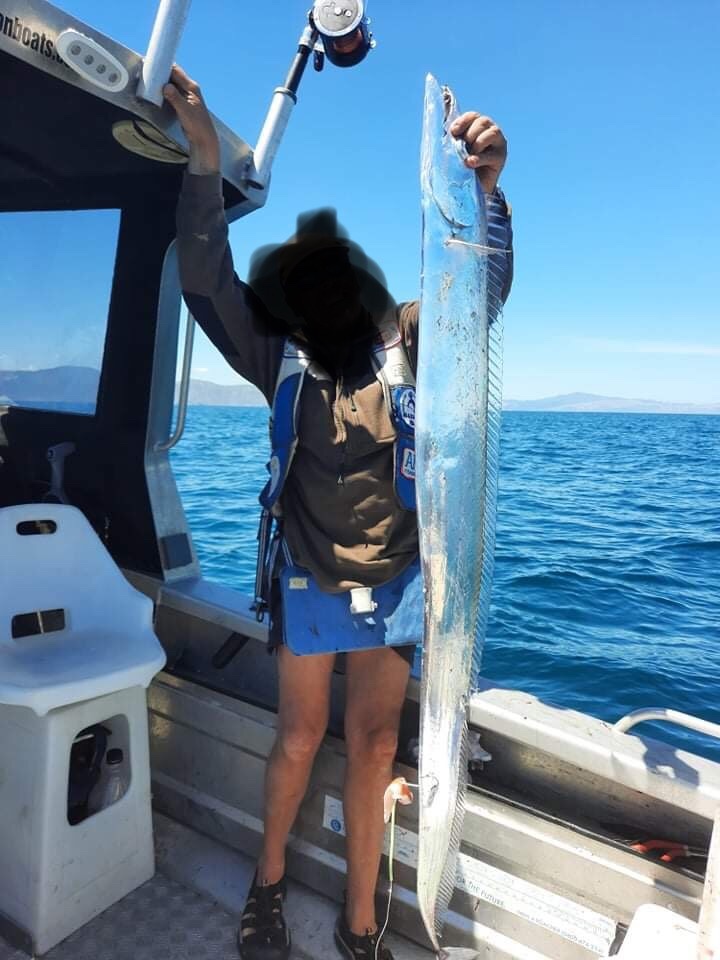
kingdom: Animalia
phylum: Chordata
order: Perciformes
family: Trichiuridae
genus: Lepidopus
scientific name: Lepidopus caudatus
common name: Silver scabbardfish
